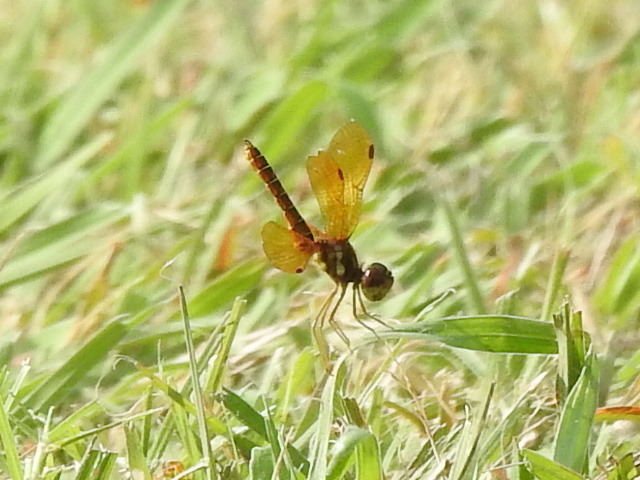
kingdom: Animalia
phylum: Arthropoda
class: Insecta
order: Odonata
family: Libellulidae
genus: Perithemis
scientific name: Perithemis tenera
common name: Eastern amberwing
